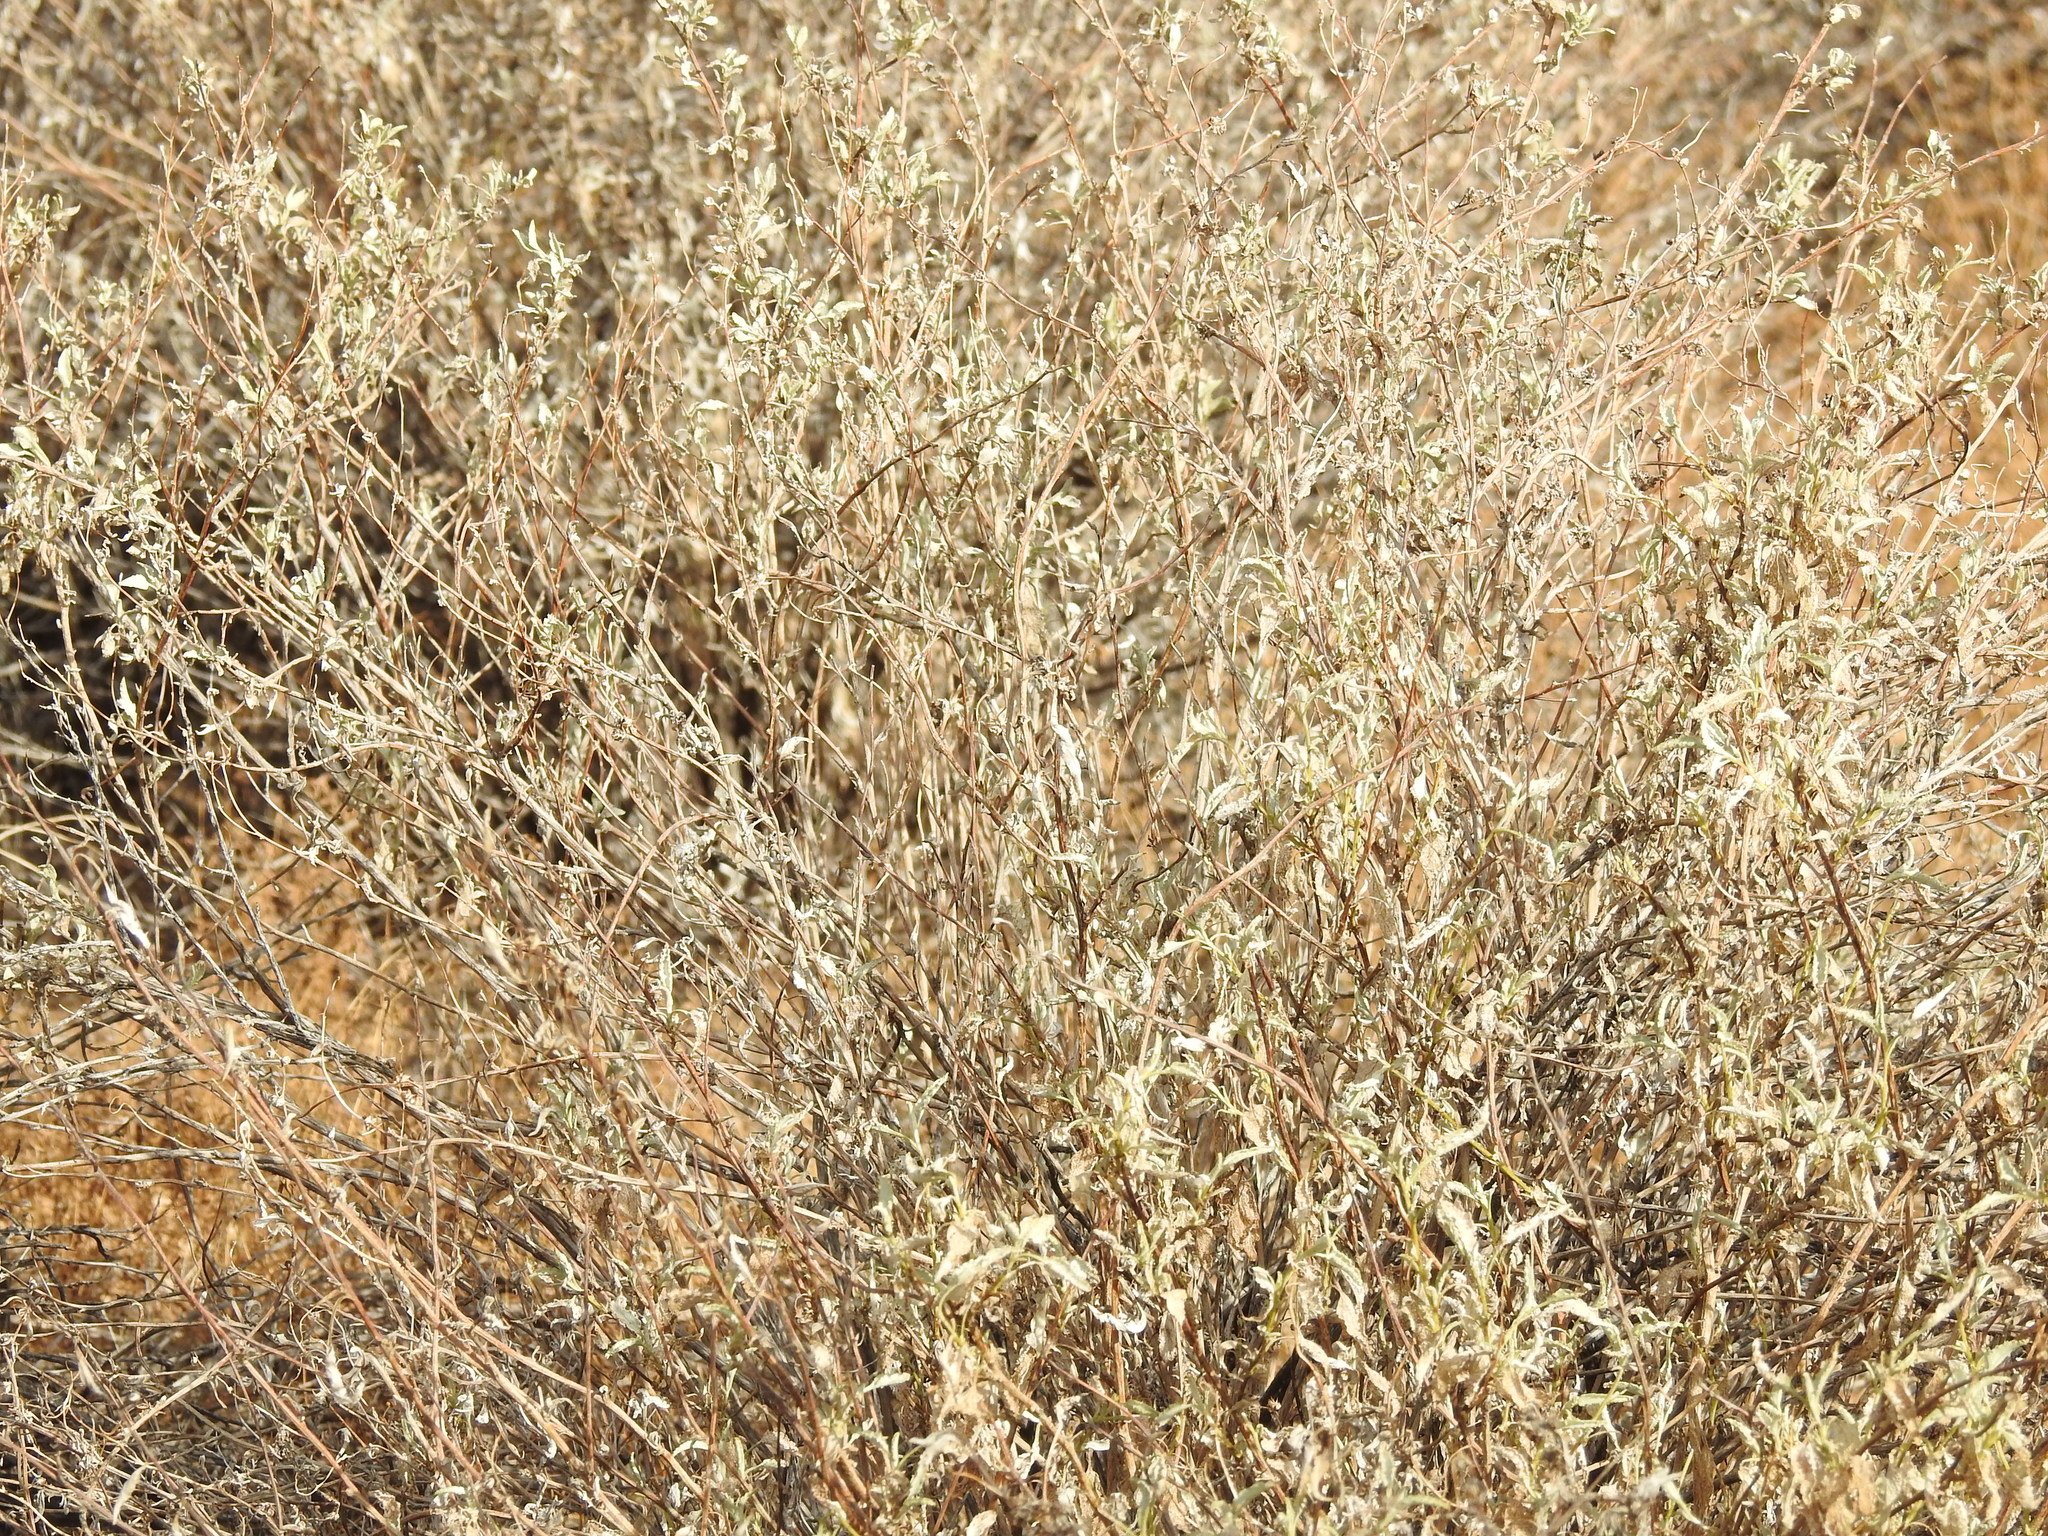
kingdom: Plantae
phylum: Tracheophyta
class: Magnoliopsida
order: Asterales
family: Asteraceae
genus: Ambrosia
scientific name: Ambrosia deltoidea
